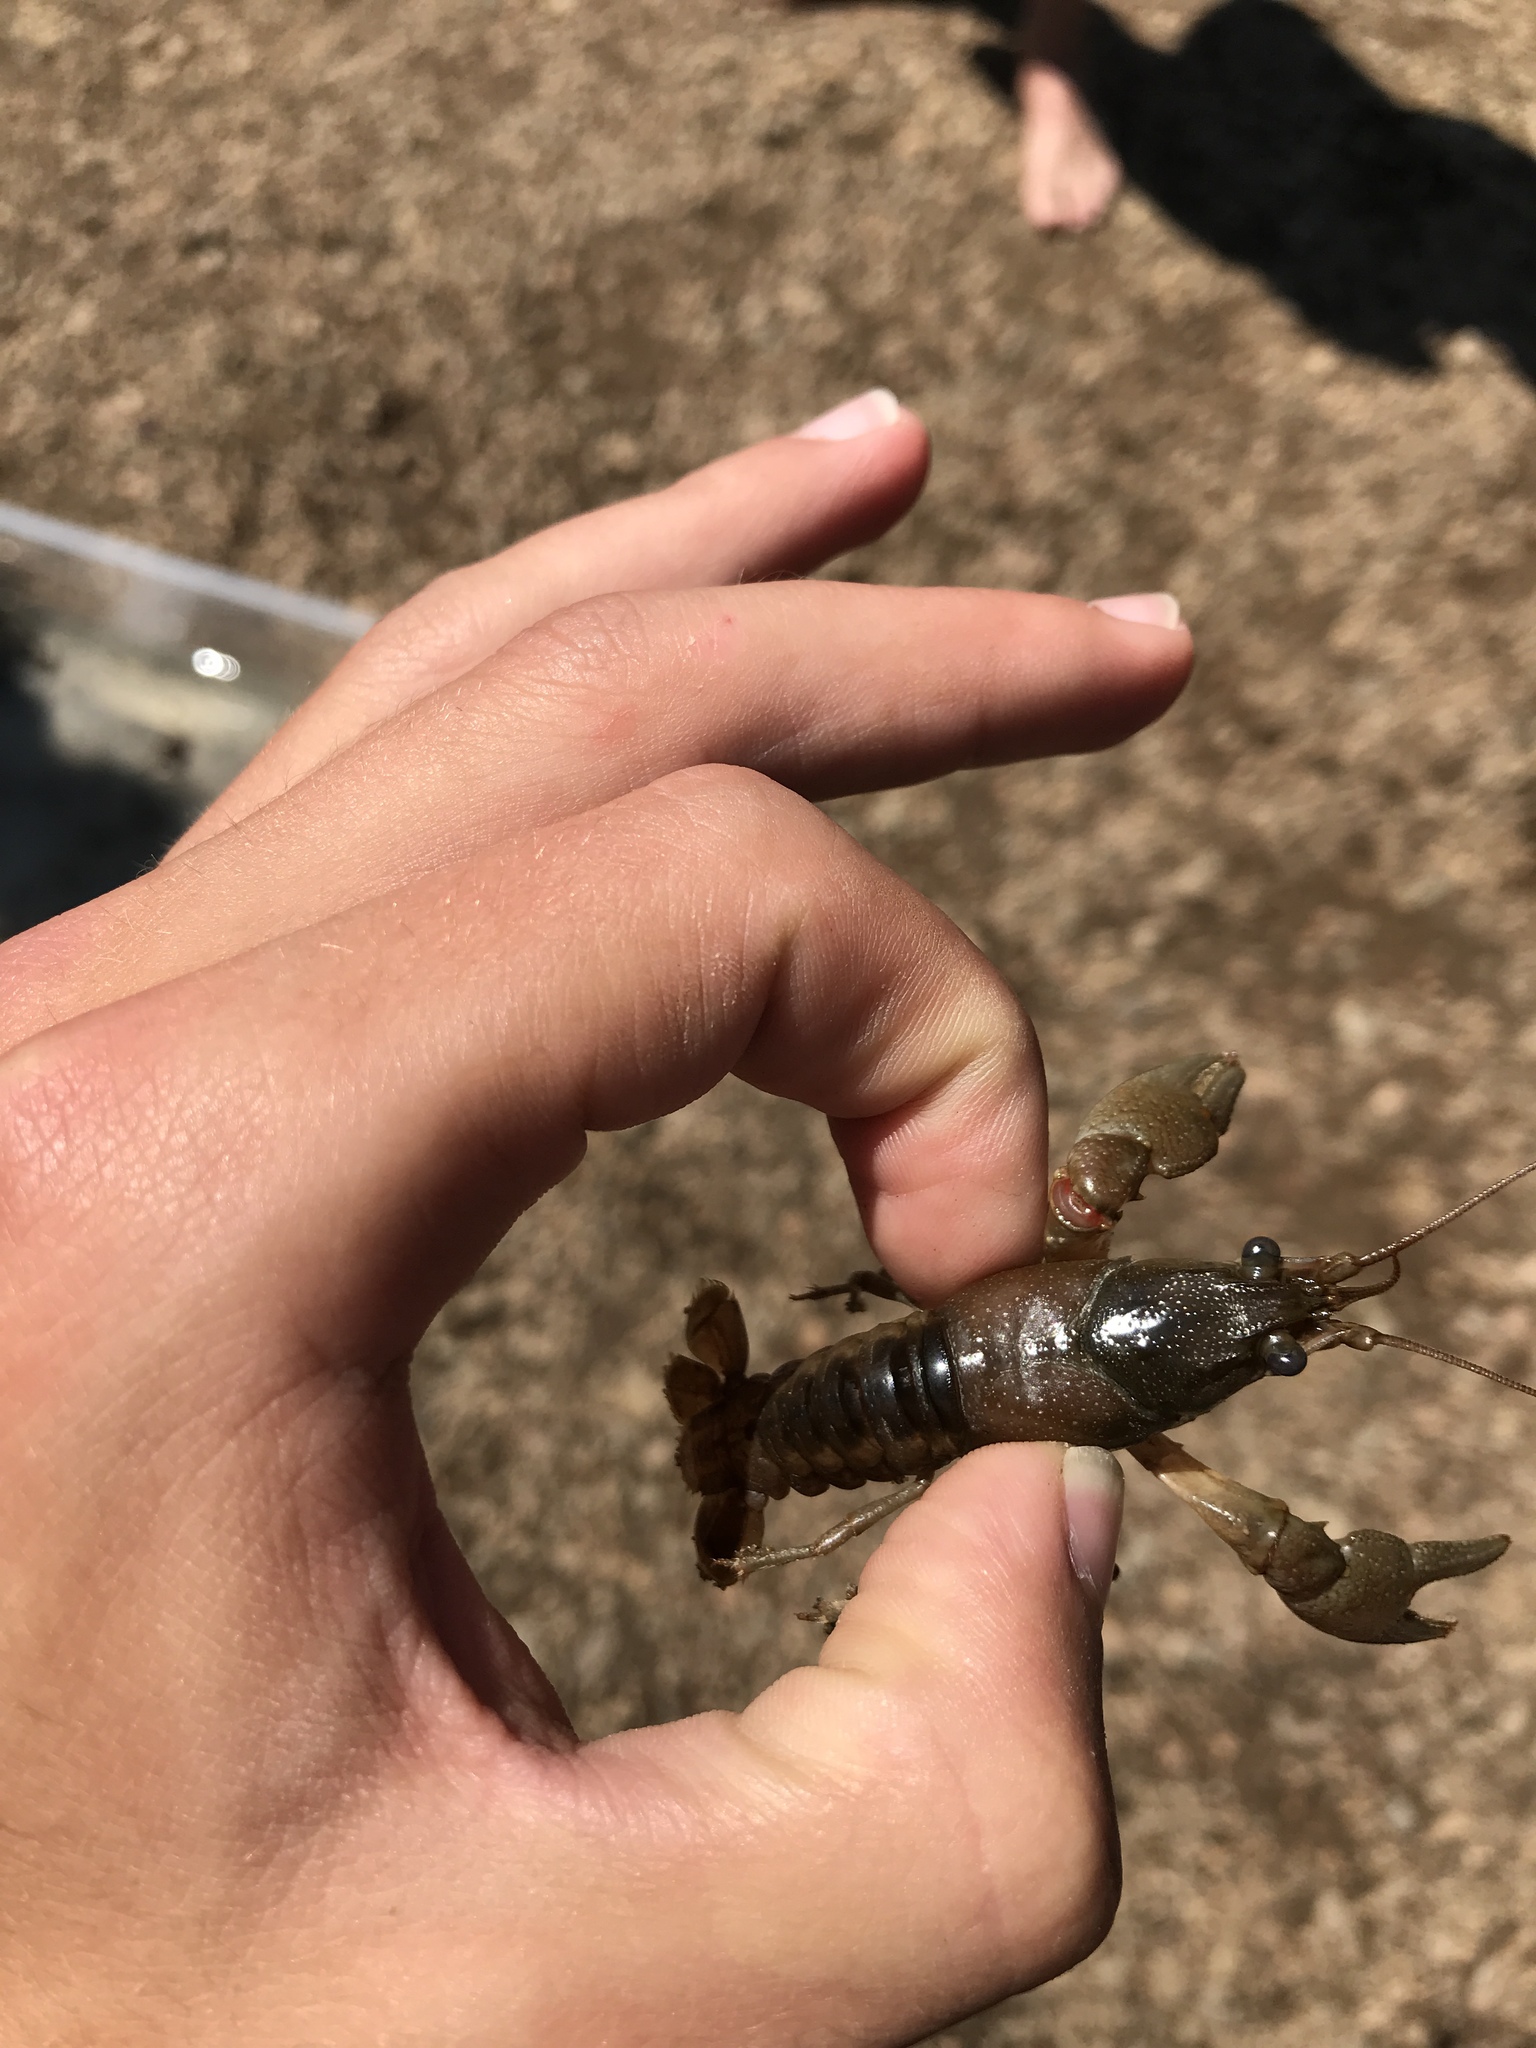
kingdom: Animalia
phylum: Arthropoda
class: Malacostraca
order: Decapoda
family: Cambaridae
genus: Faxonius
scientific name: Faxonius propinquus
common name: Northern clearwater crayfish
